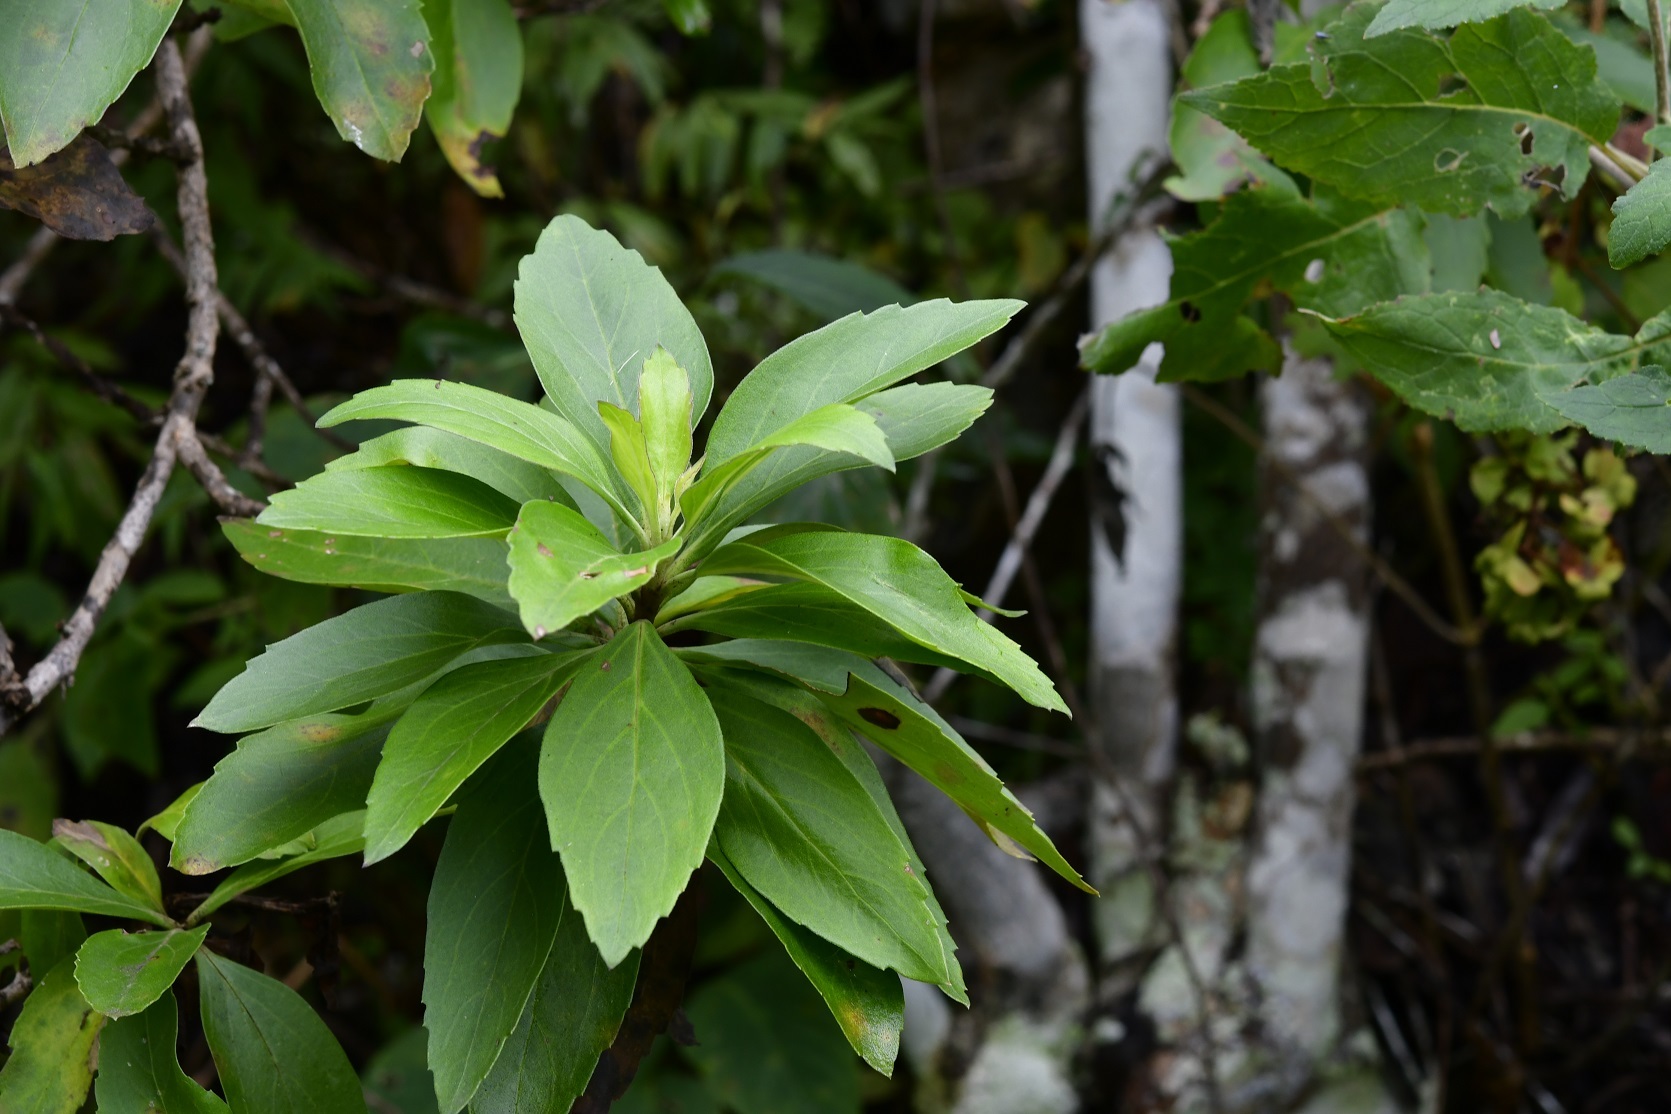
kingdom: Plantae
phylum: Tracheophyta
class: Magnoliopsida
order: Lamiales
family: Scrophulariaceae
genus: Eremogeton
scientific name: Eremogeton grandiflorus
